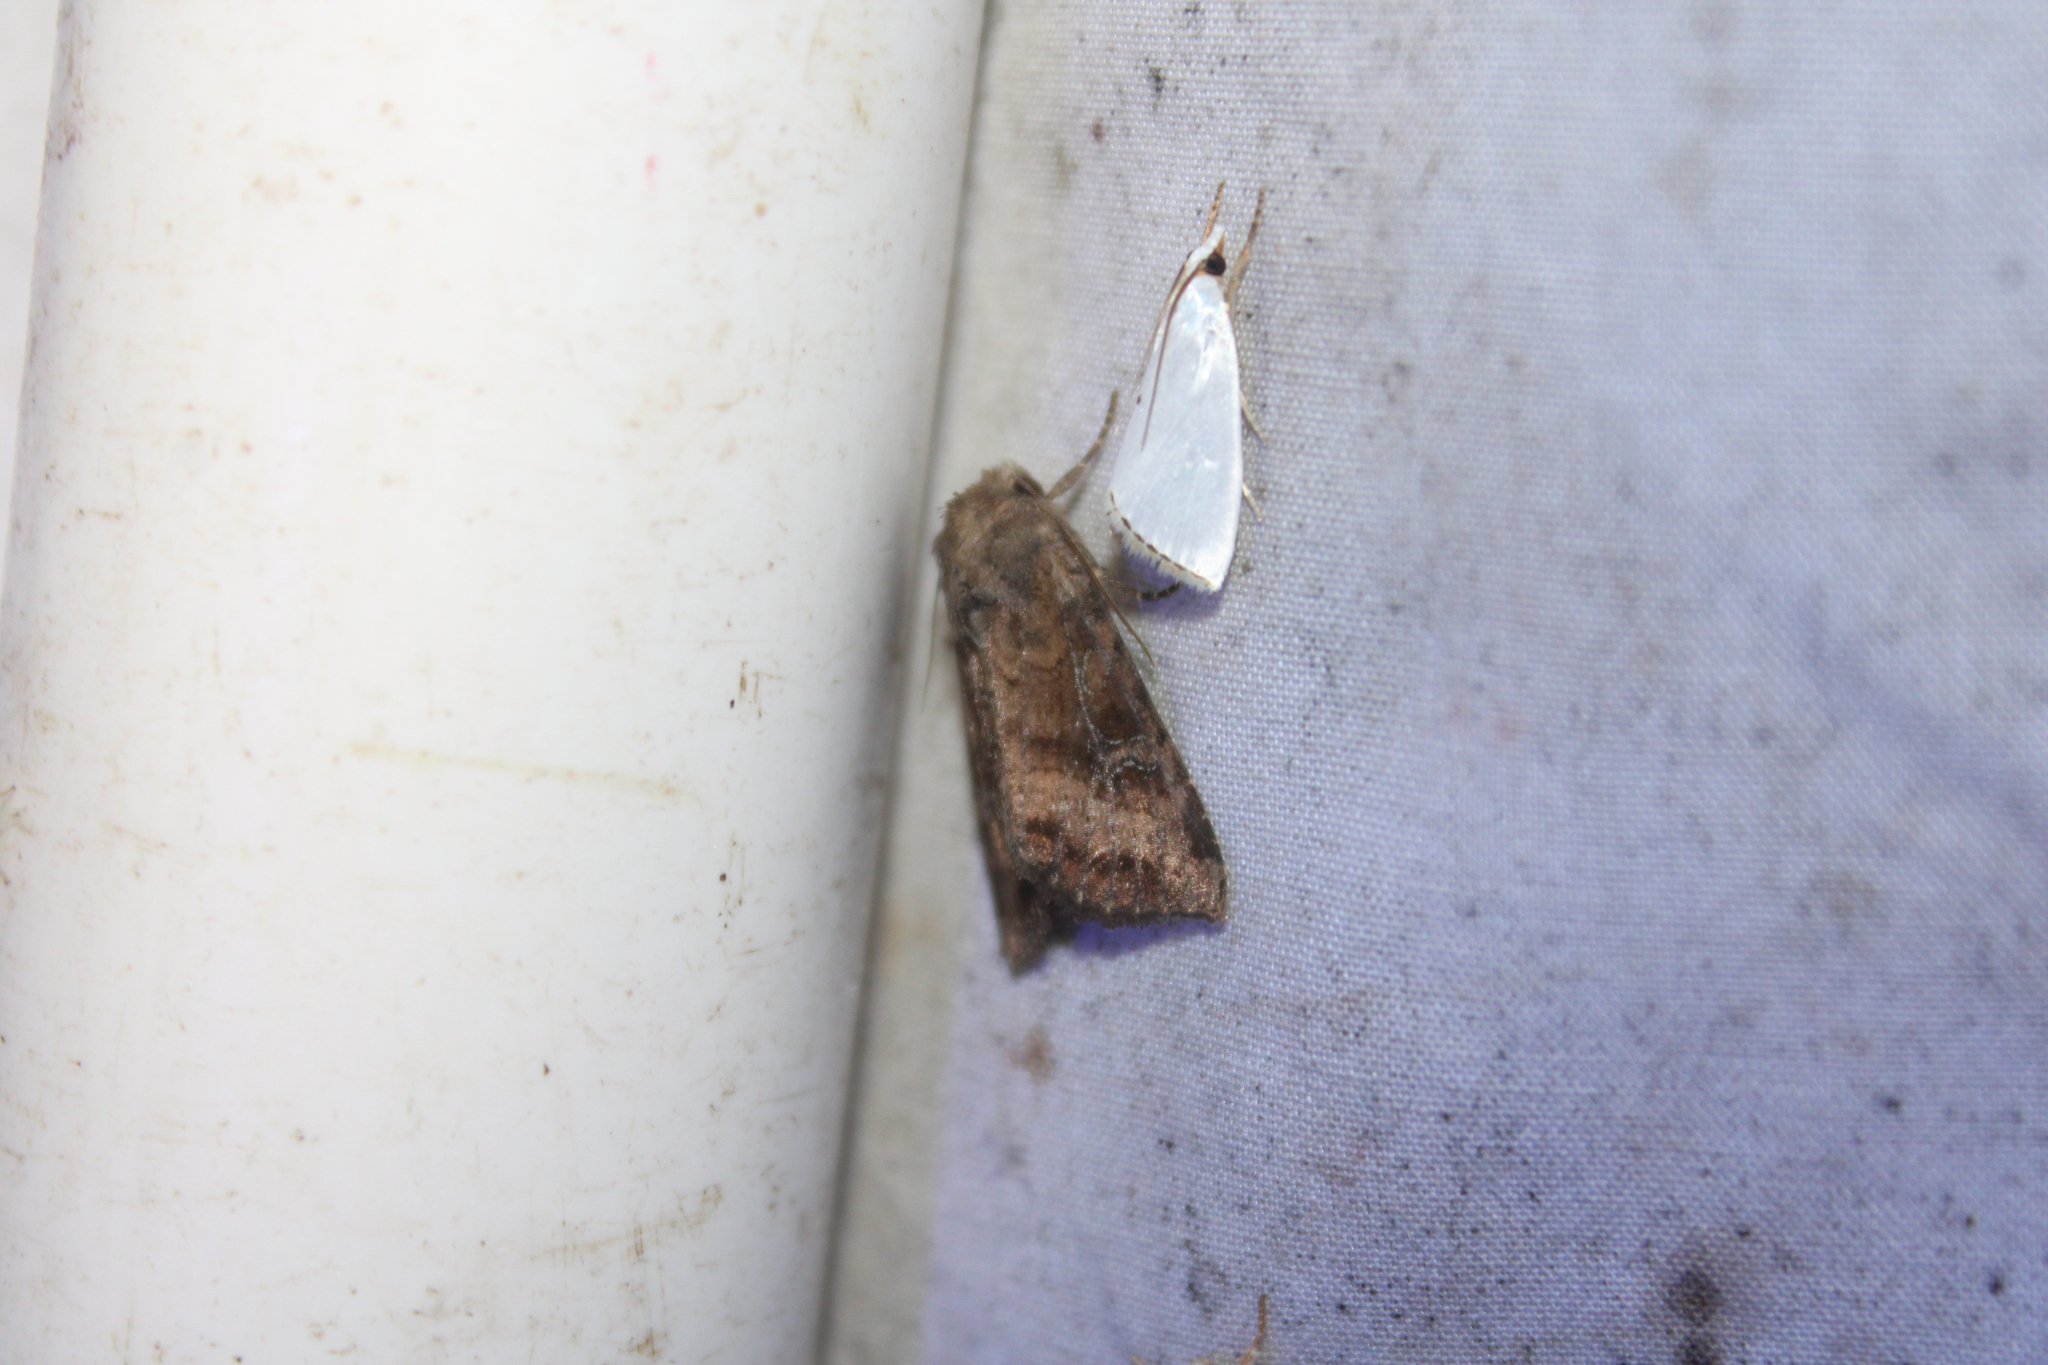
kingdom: Animalia
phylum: Arthropoda
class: Insecta
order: Lepidoptera
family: Noctuidae
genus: Loscopia
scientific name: Loscopia velata
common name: Veiled ear moth
